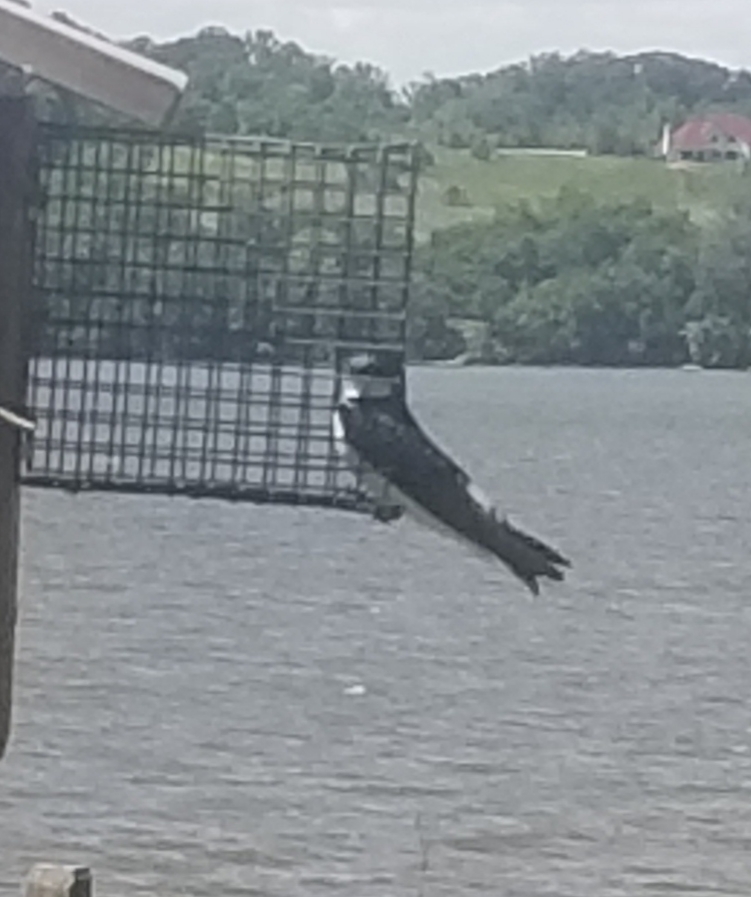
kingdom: Animalia
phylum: Chordata
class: Aves
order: Passeriformes
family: Hirundinidae
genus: Tachycineta
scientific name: Tachycineta bicolor
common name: Tree swallow
